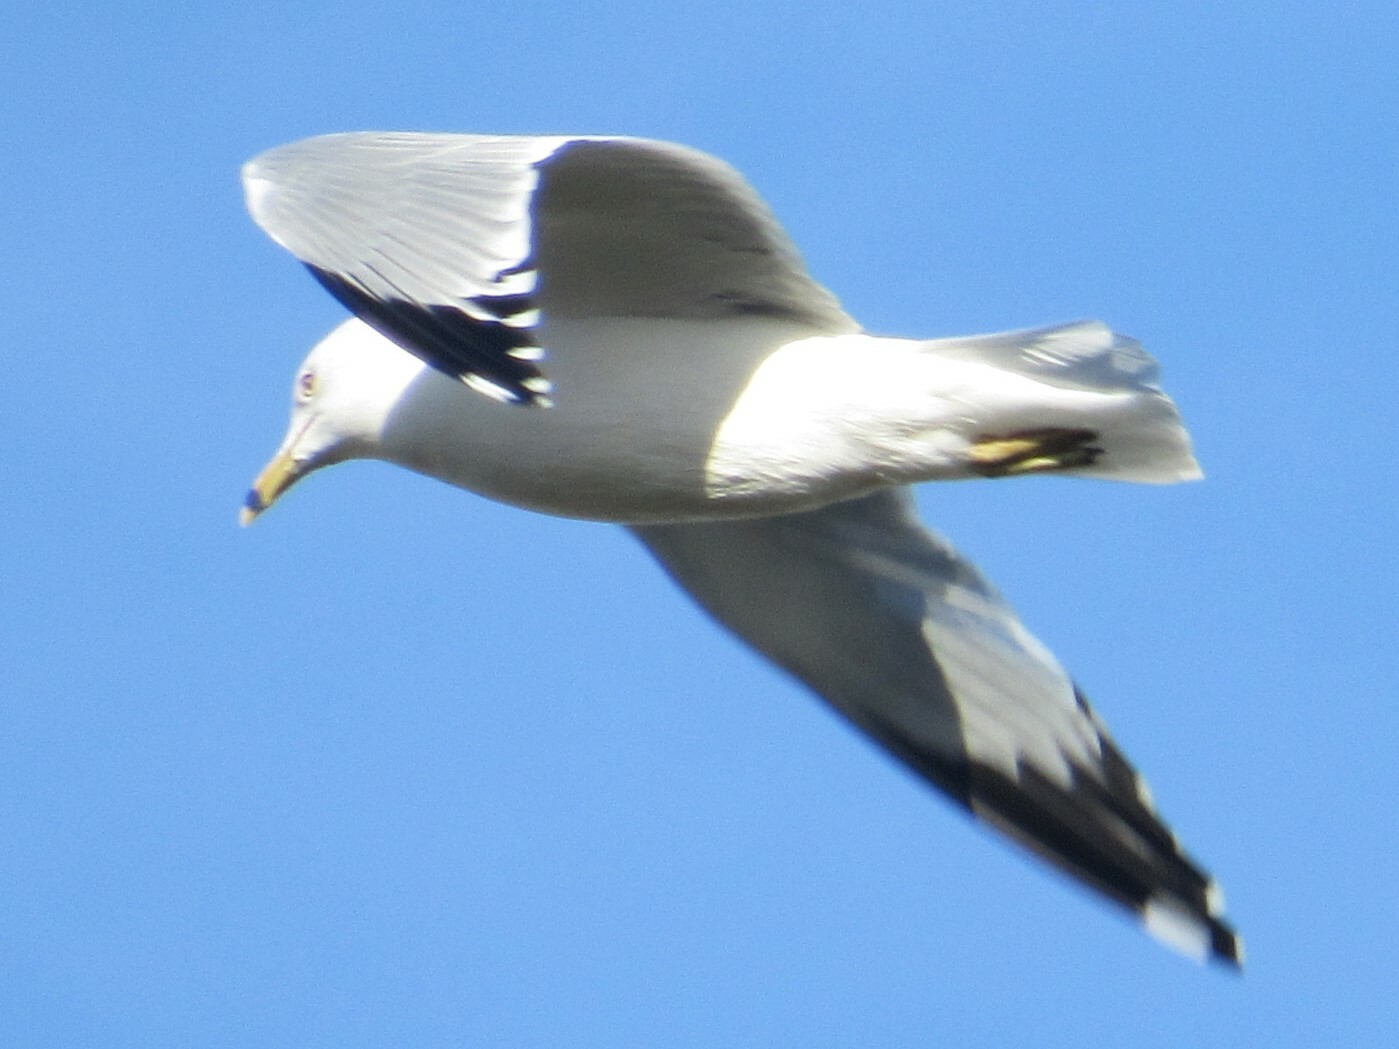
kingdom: Animalia
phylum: Chordata
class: Aves
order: Charadriiformes
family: Laridae
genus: Larus
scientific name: Larus delawarensis
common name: Ring-billed gull
